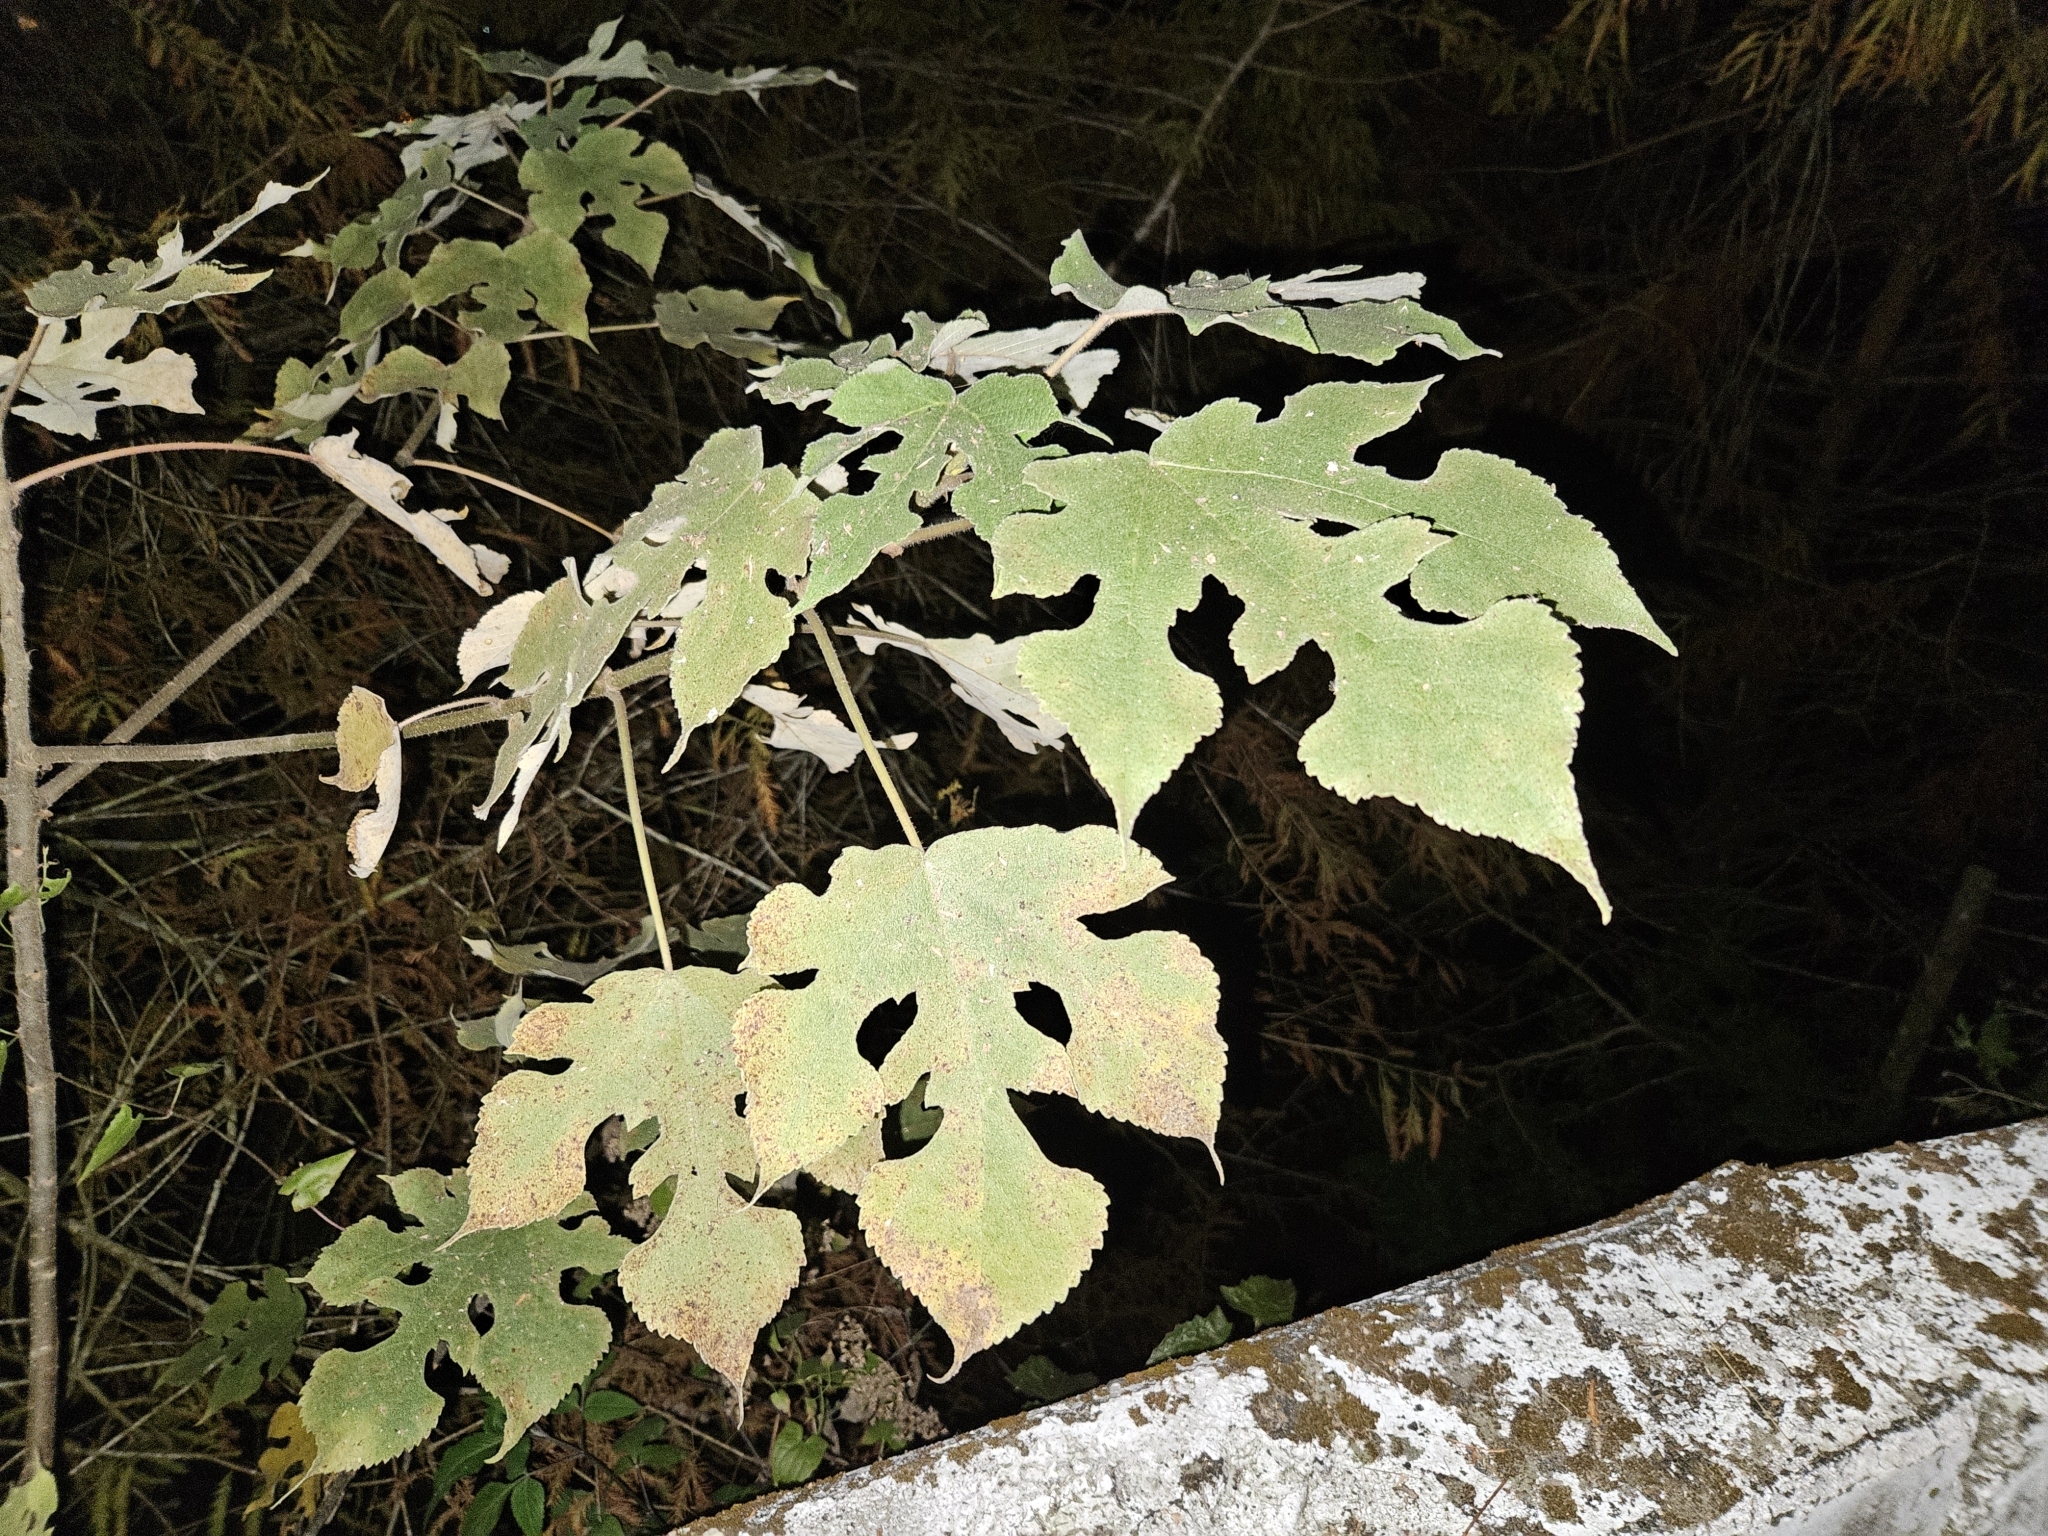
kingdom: Plantae
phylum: Tracheophyta
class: Magnoliopsida
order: Rosales
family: Moraceae
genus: Broussonetia
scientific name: Broussonetia papyrifera
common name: Paper mulberry
